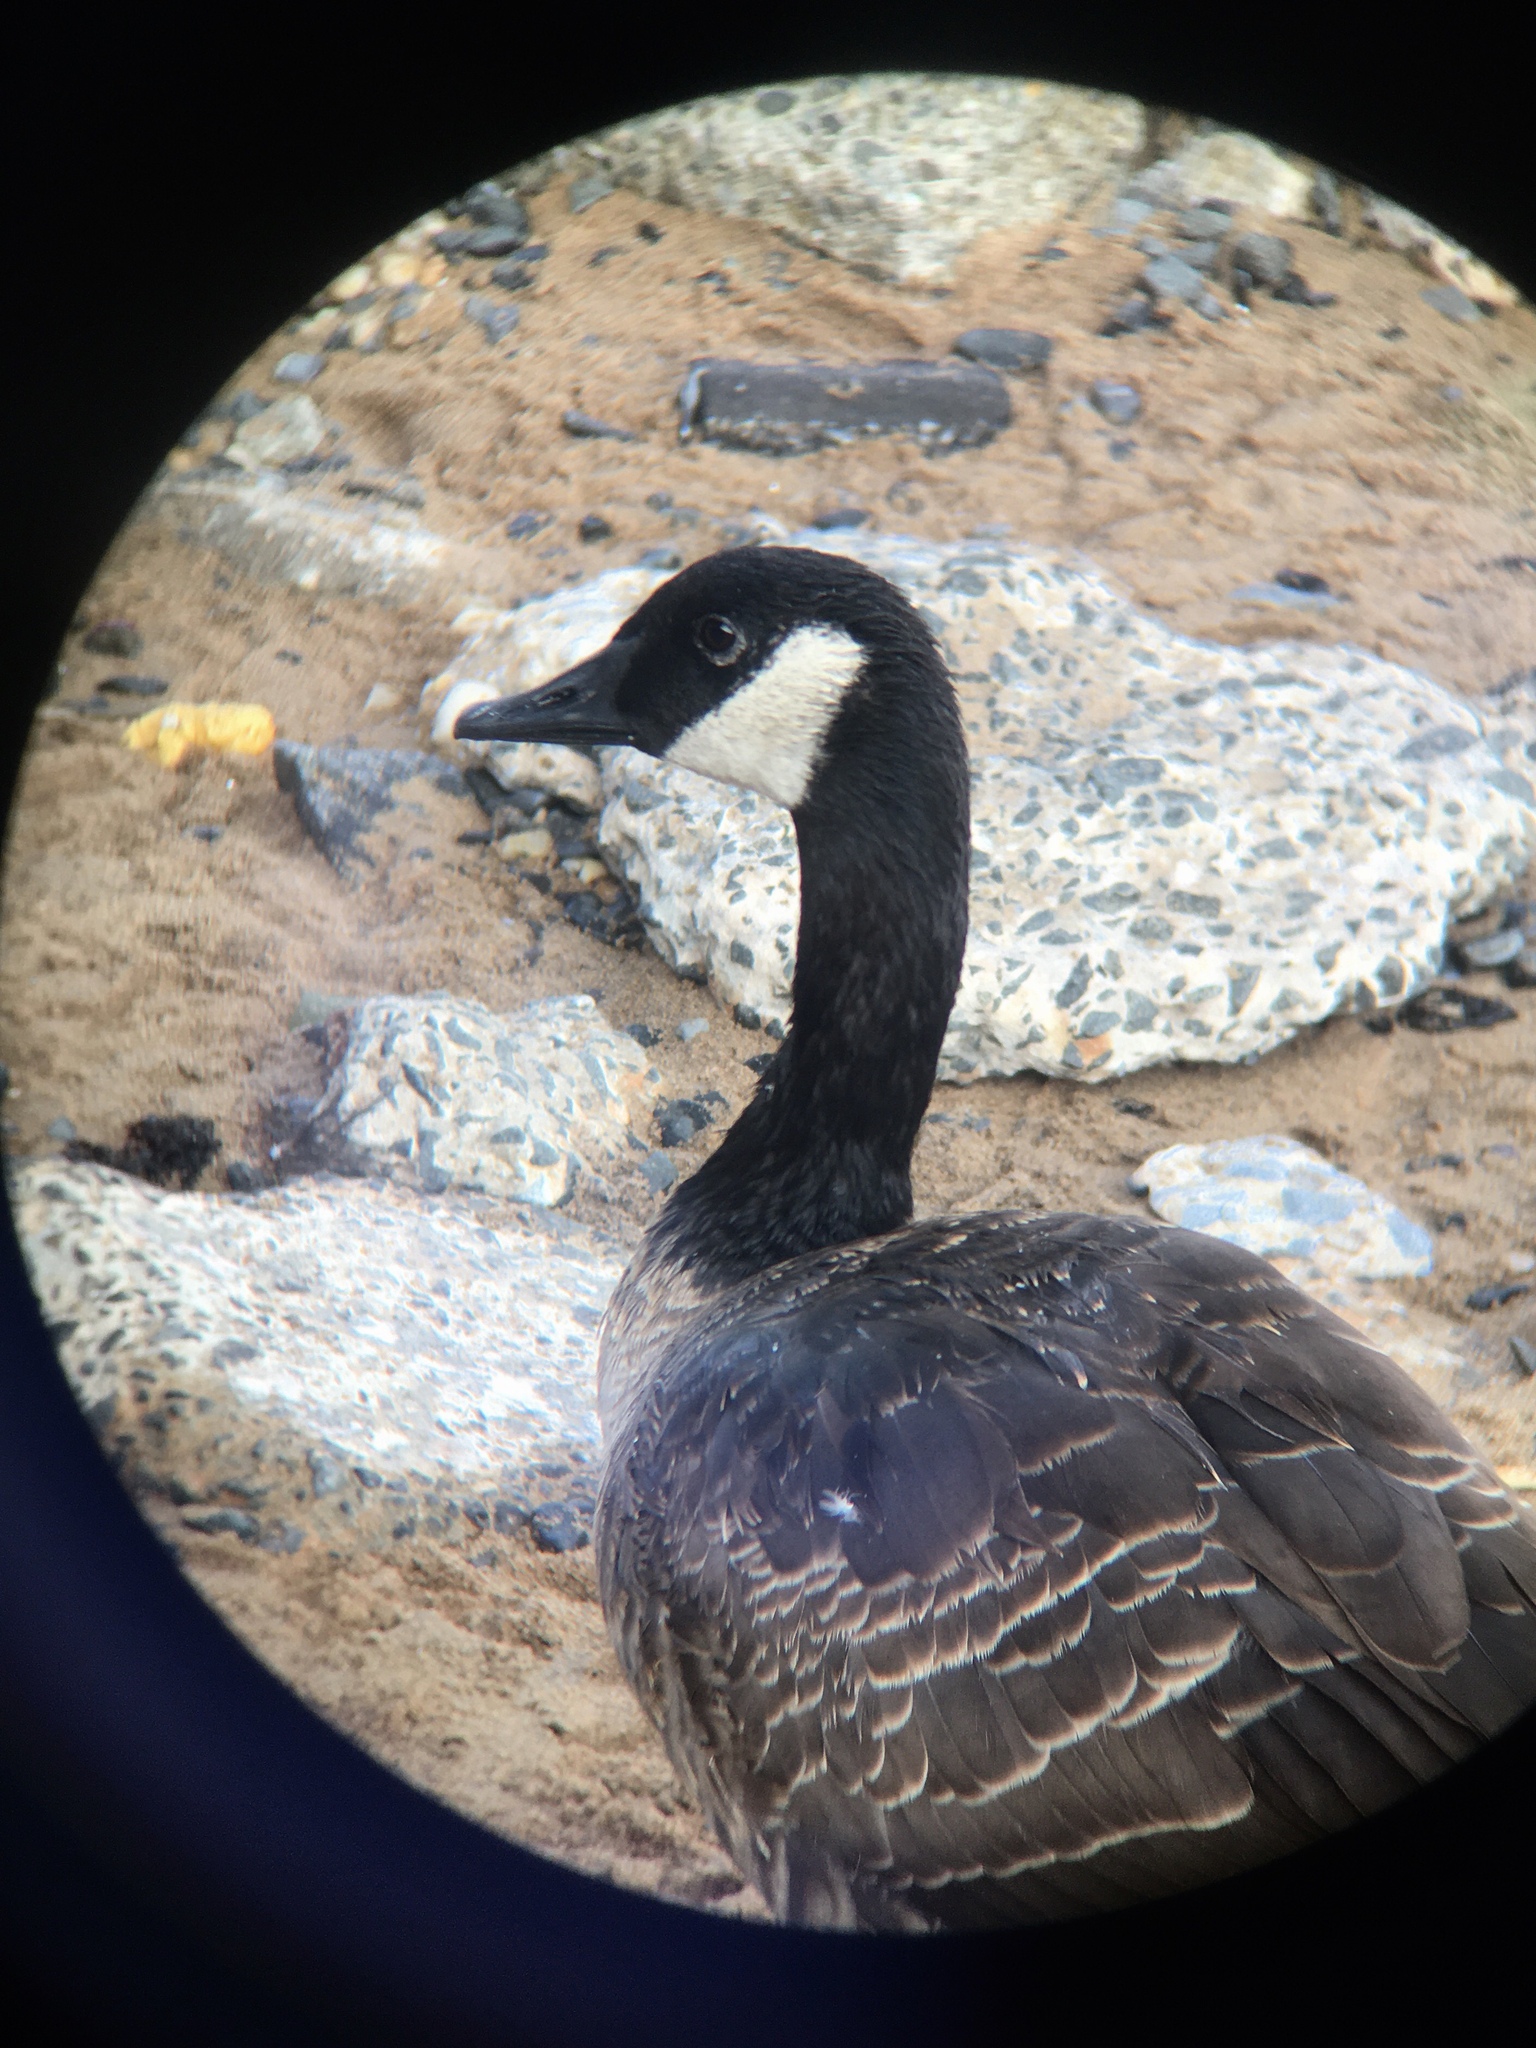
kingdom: Animalia
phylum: Chordata
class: Aves
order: Anseriformes
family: Anatidae
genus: Branta
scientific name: Branta canadensis
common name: Canada goose
